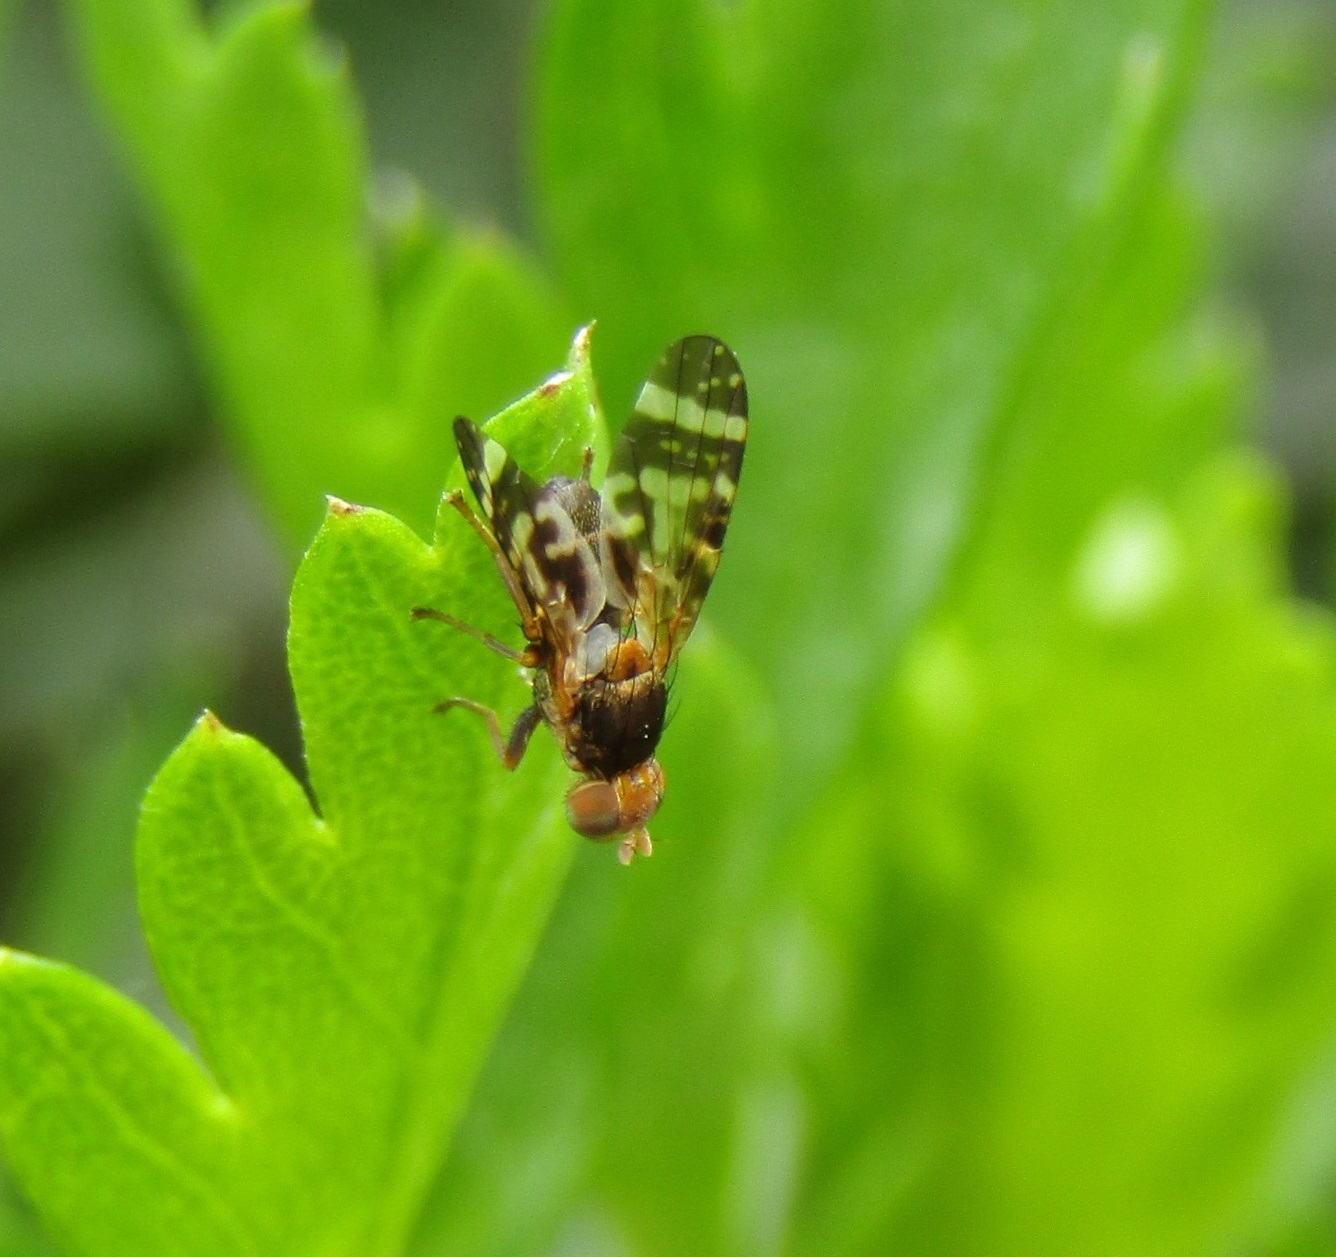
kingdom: Animalia
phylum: Arthropoda
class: Insecta
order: Diptera
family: Tephritidae
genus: Sphenella
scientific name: Sphenella
